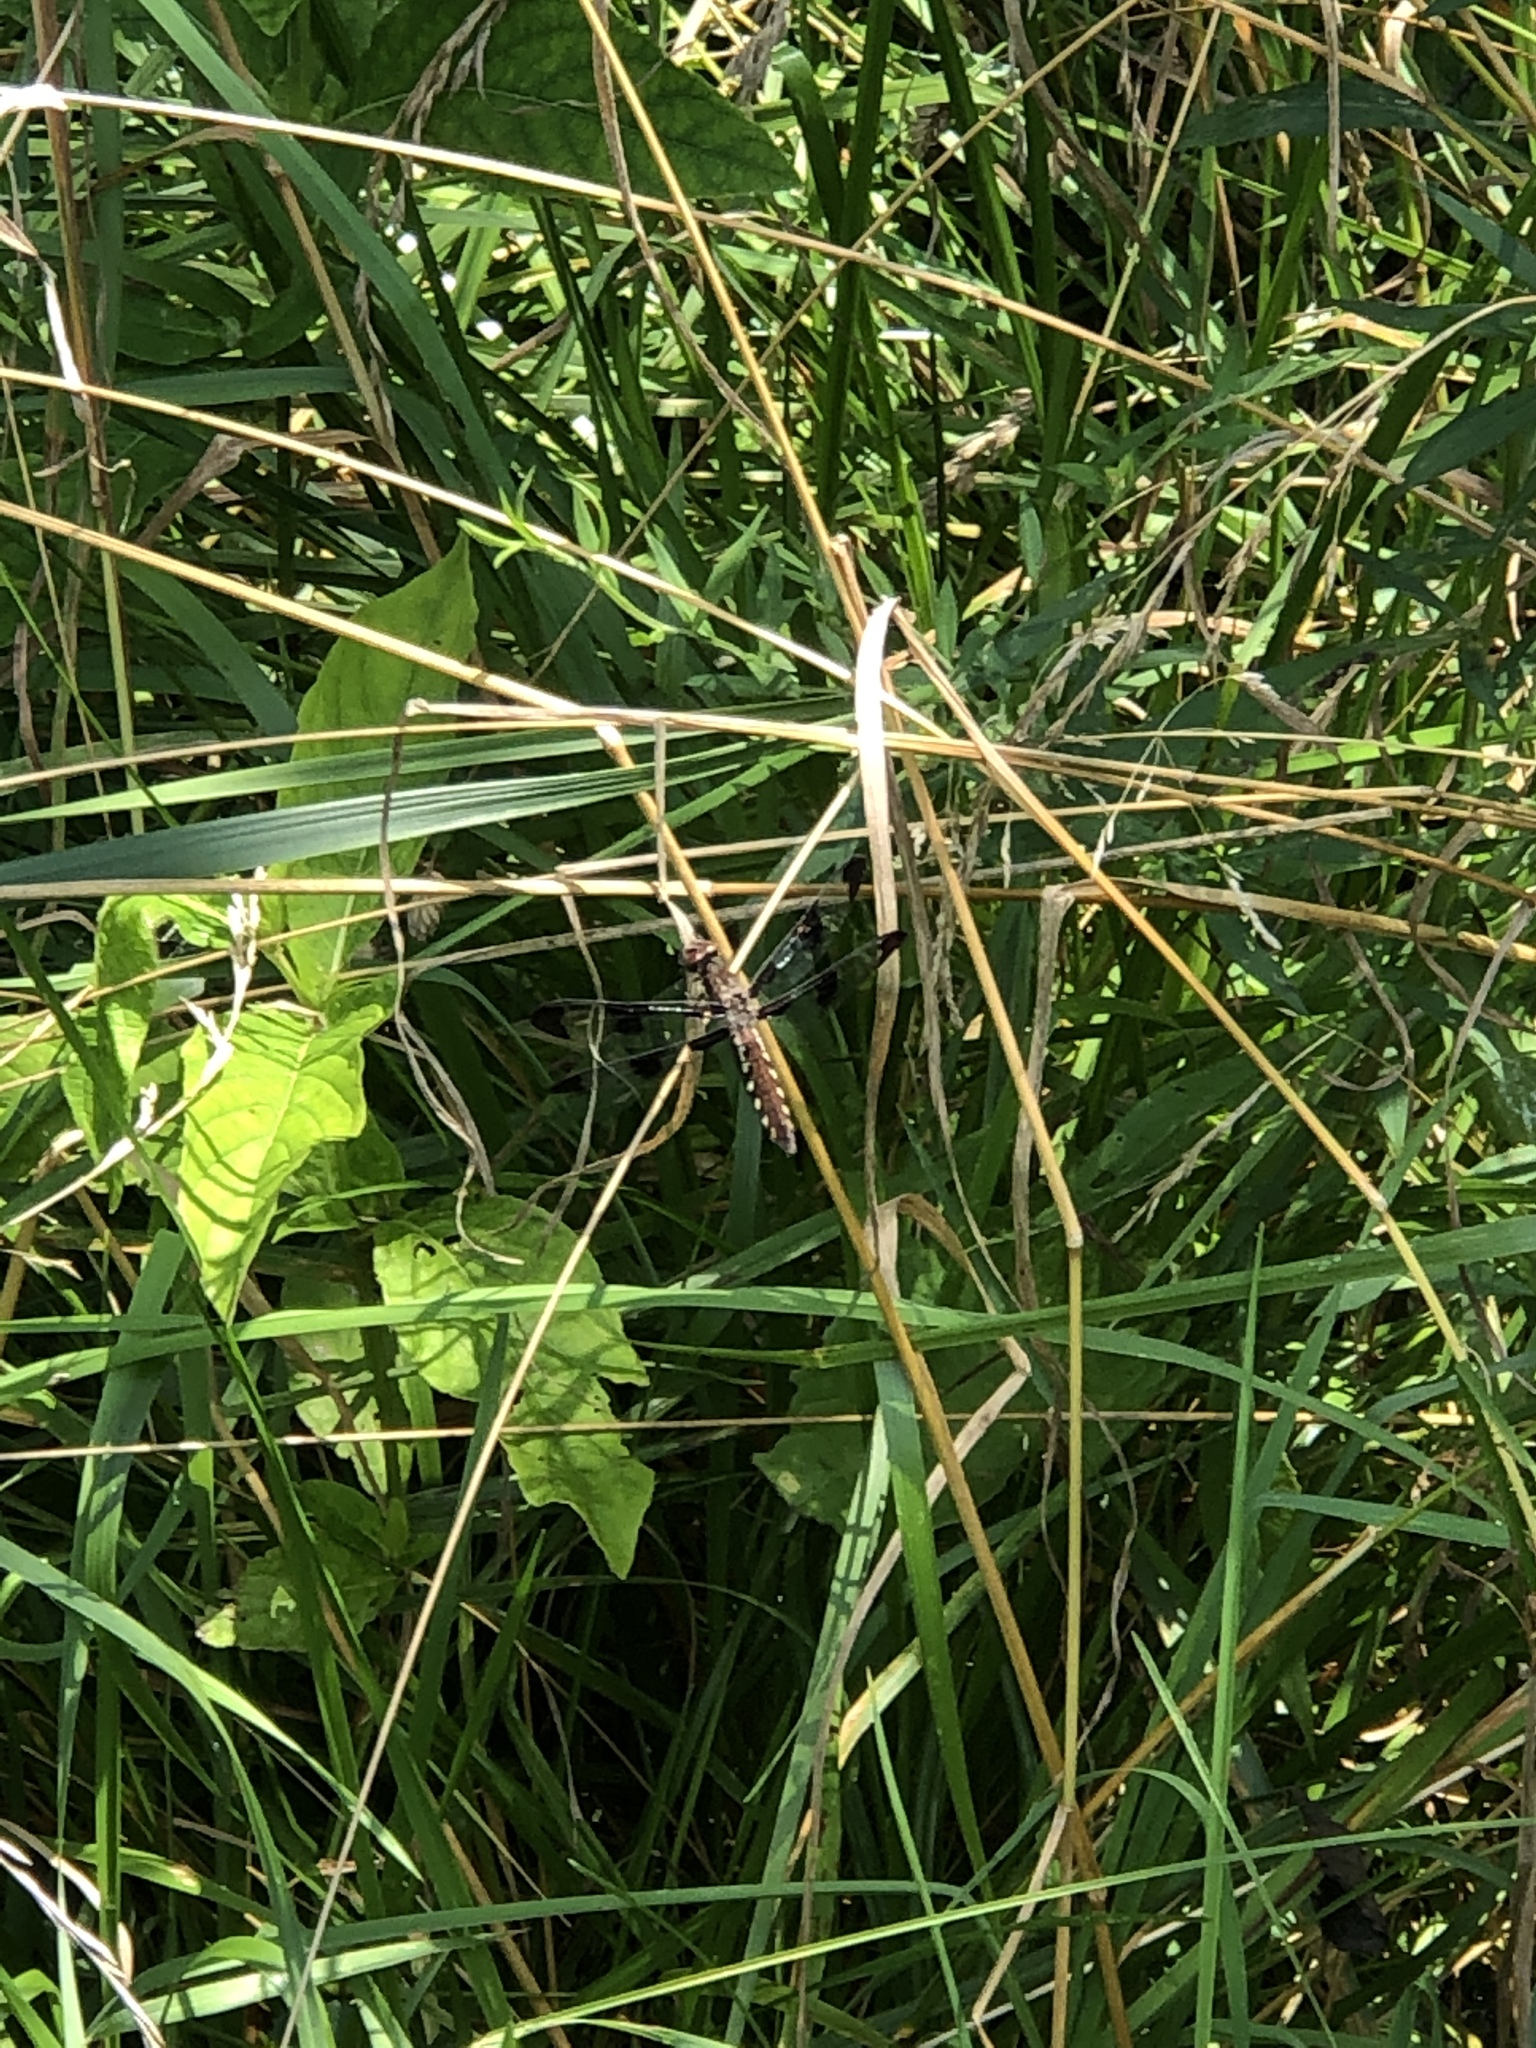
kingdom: Animalia
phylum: Arthropoda
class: Insecta
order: Odonata
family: Libellulidae
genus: Plathemis
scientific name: Plathemis lydia
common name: Common whitetail
